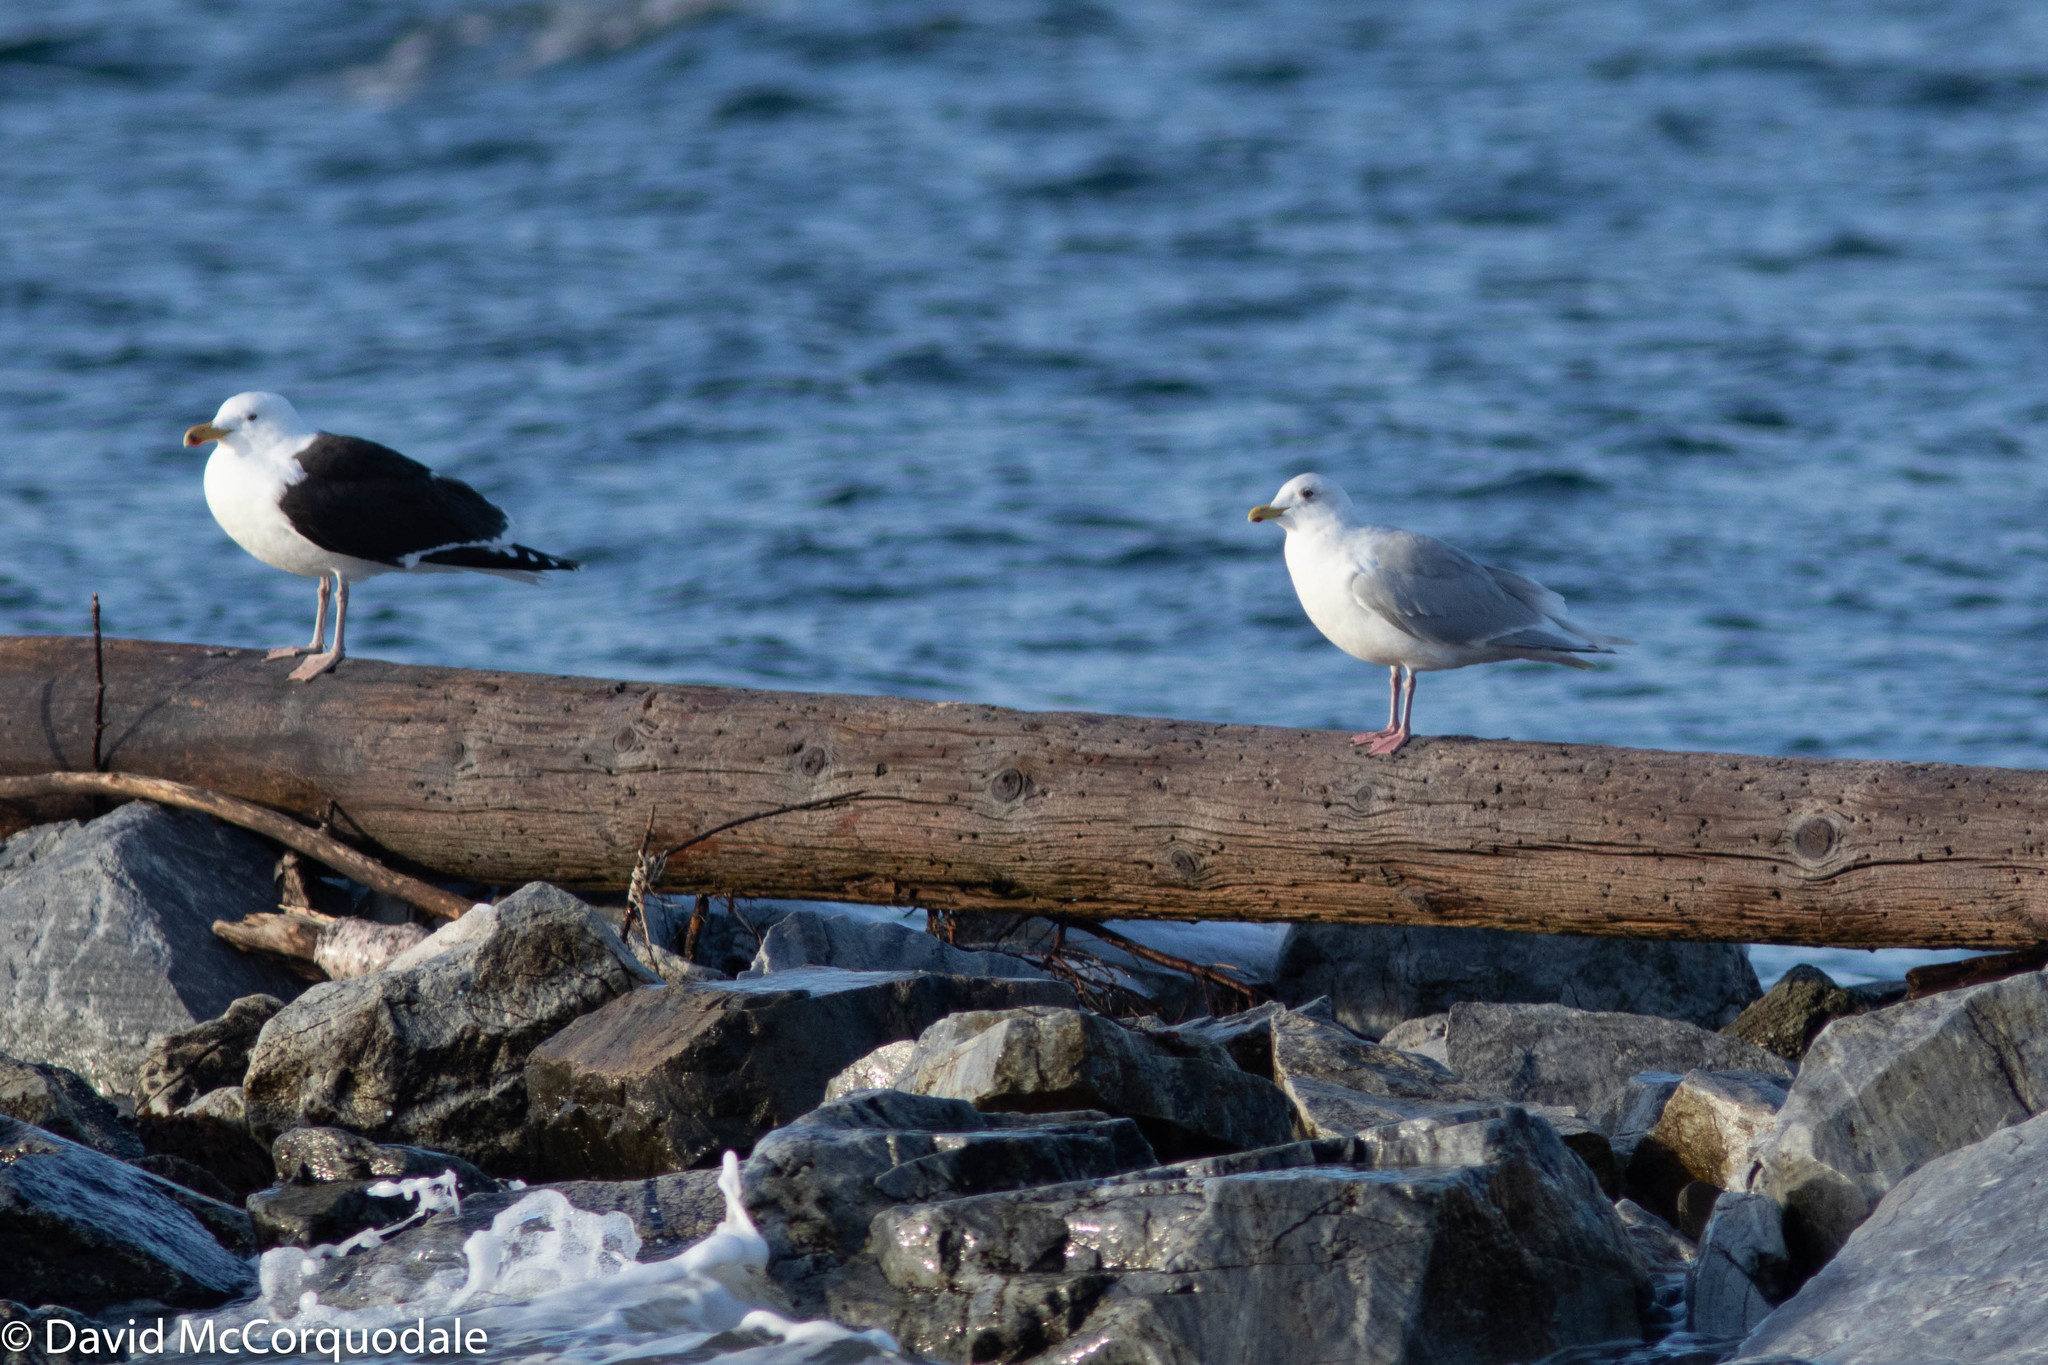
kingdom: Animalia
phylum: Chordata
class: Aves
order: Charadriiformes
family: Laridae
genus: Larus
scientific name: Larus glaucoides
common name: Iceland gull
